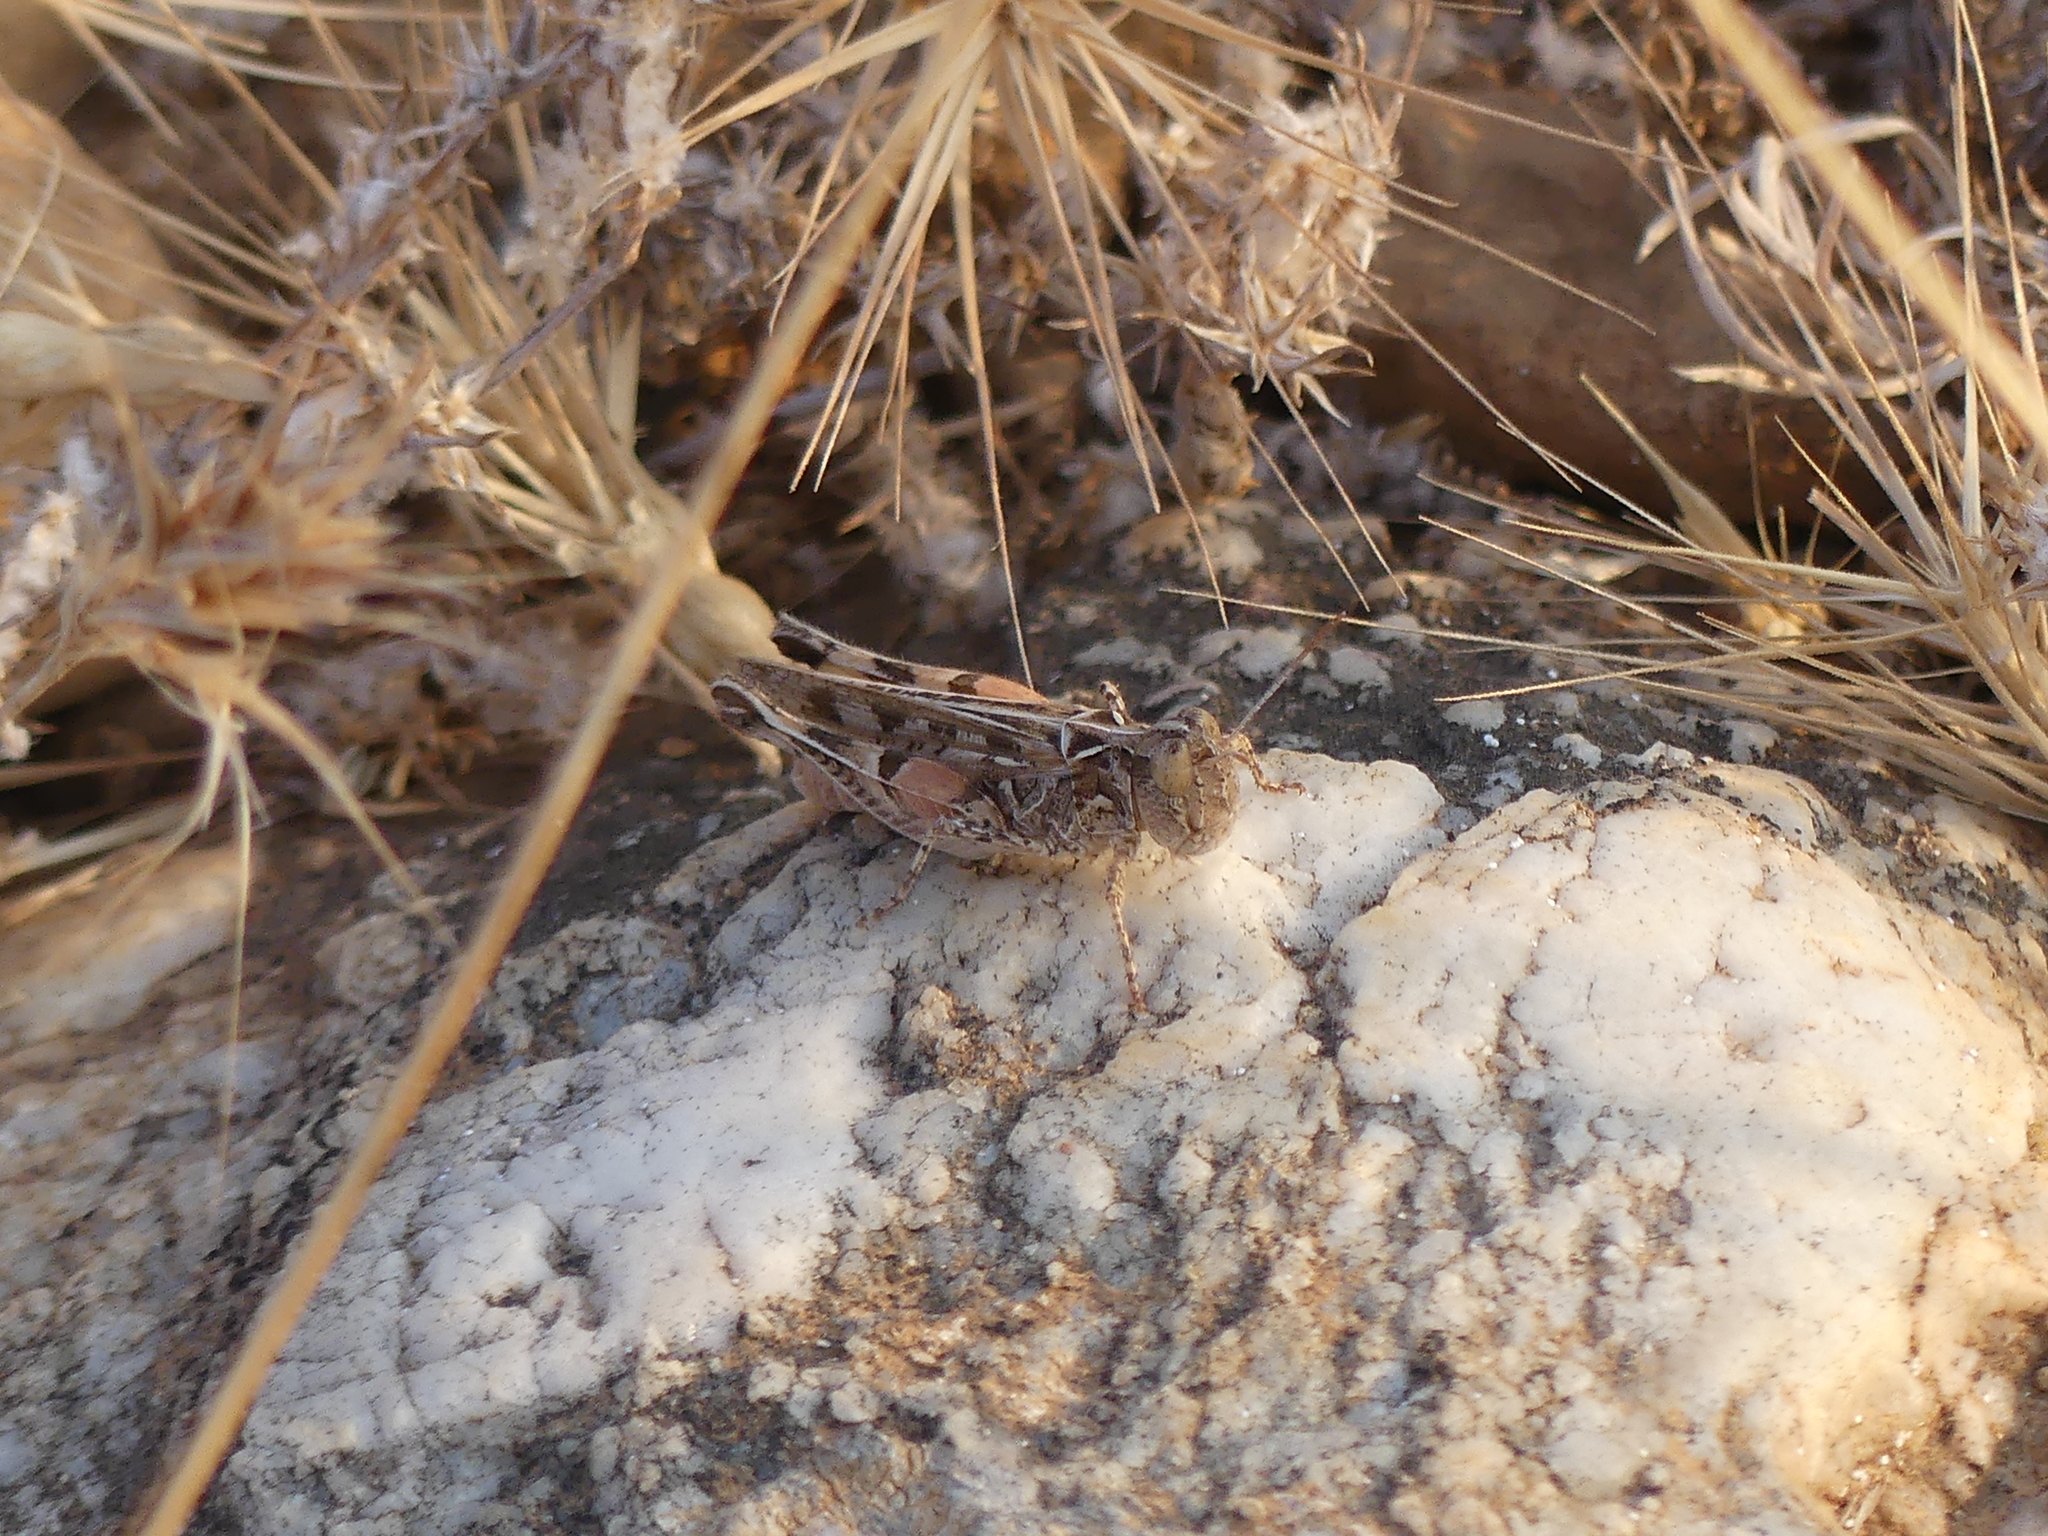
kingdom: Animalia
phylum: Arthropoda
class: Insecta
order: Orthoptera
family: Acrididae
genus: Dociostaurus
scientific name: Dociostaurus genei
